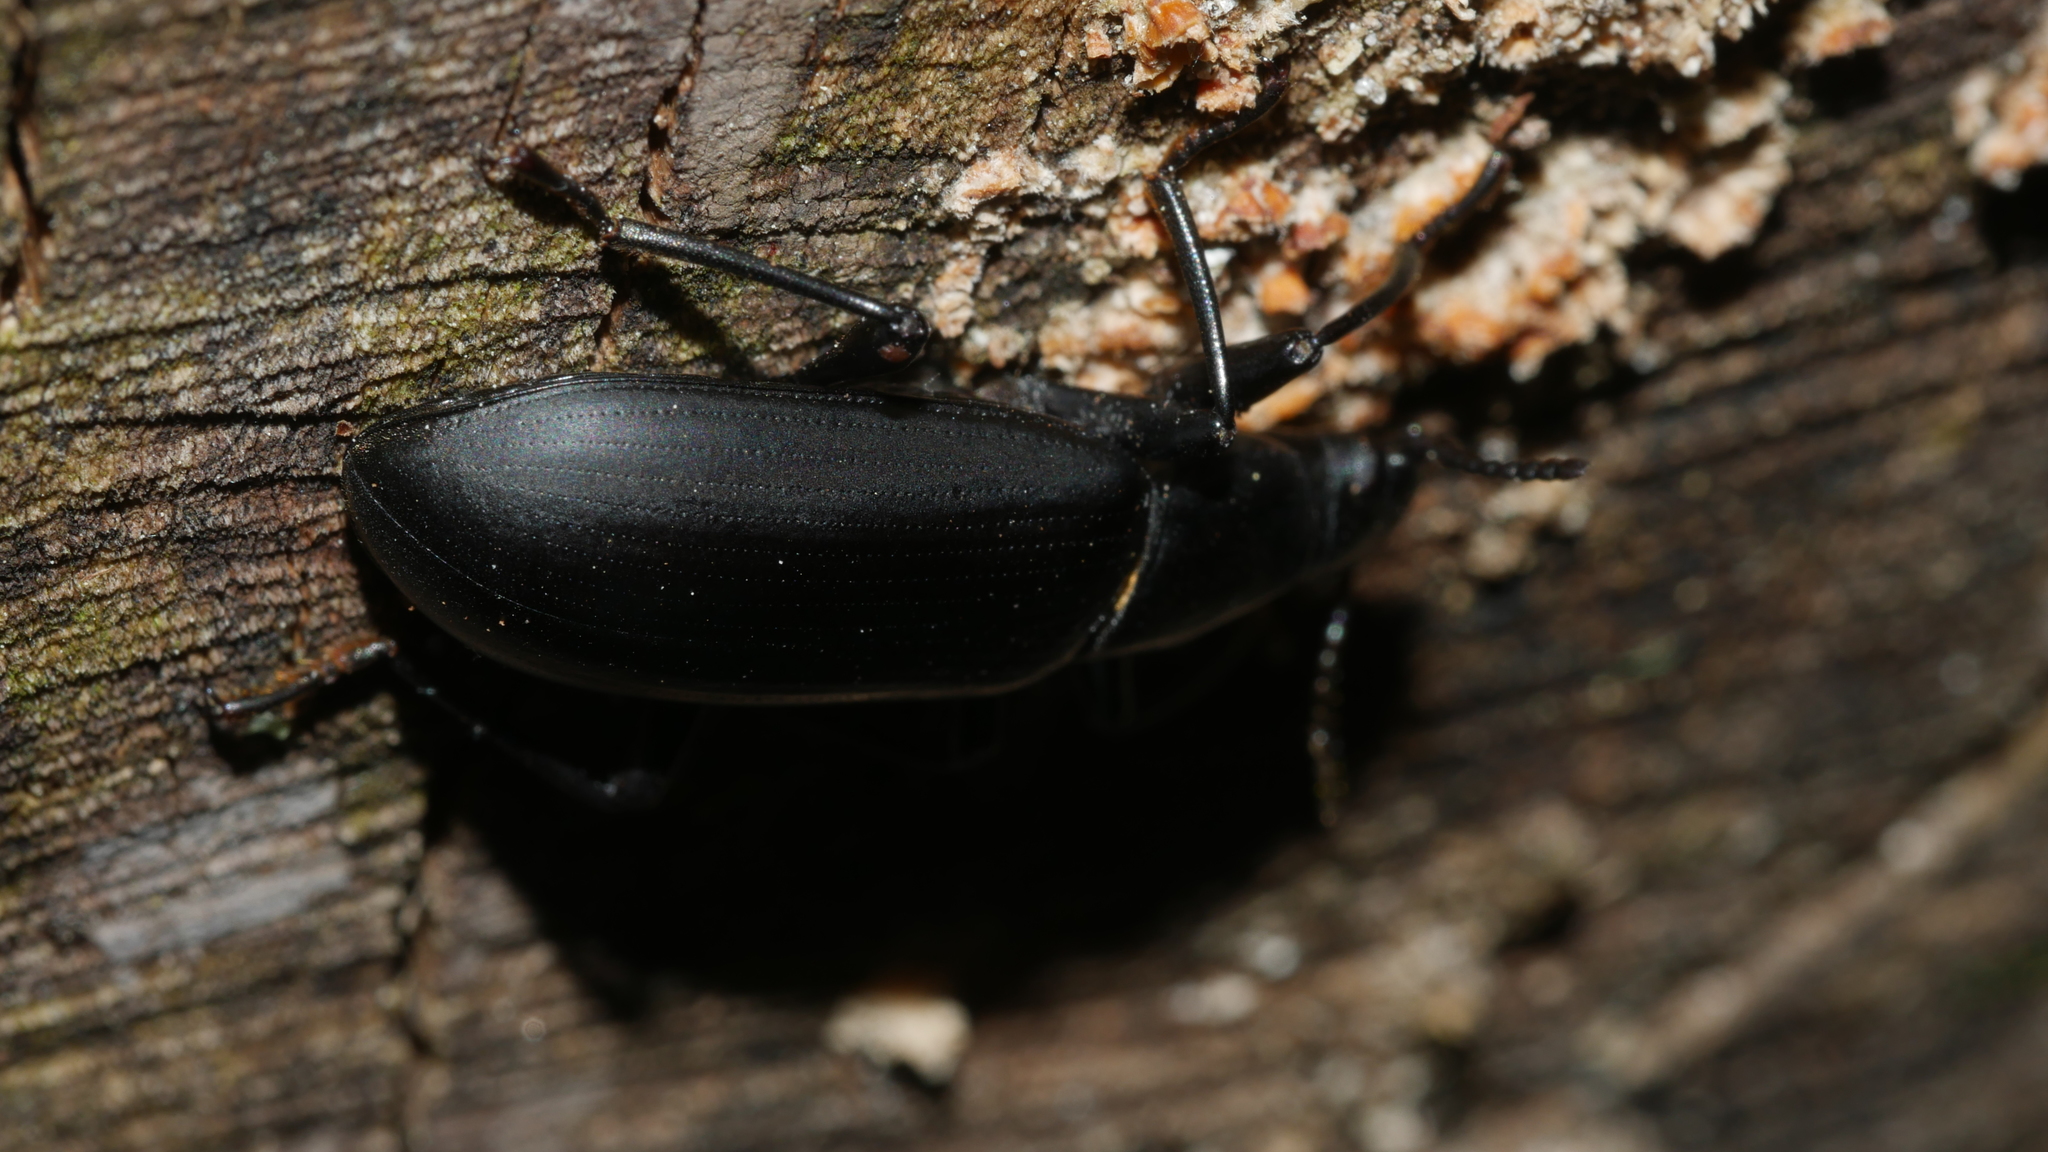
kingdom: Animalia
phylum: Arthropoda
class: Insecta
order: Coleoptera
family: Tenebrionidae
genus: Alobates
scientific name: Alobates
